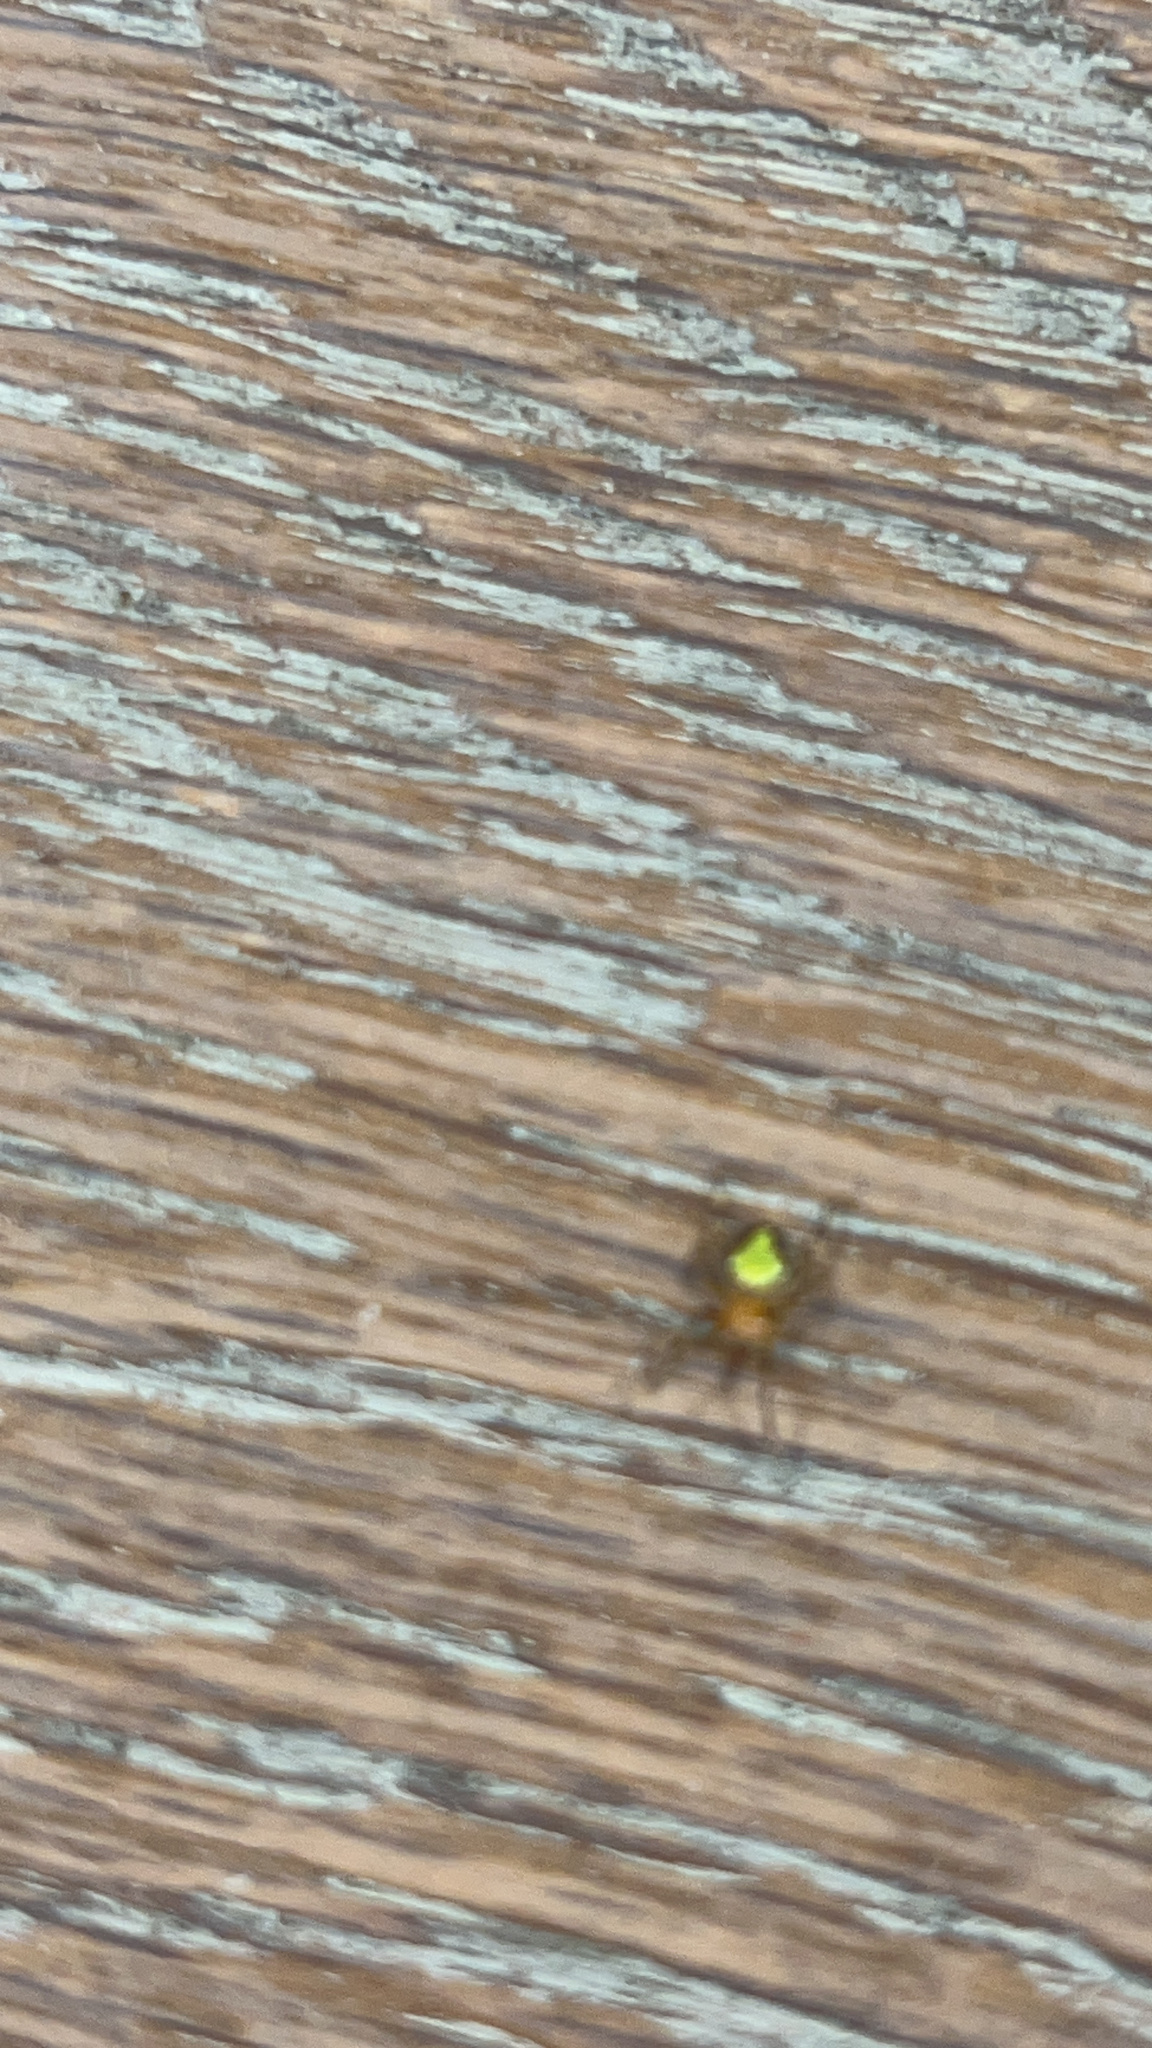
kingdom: Animalia
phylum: Arthropoda
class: Arachnida
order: Araneae
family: Araneidae
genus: Eriophora
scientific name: Eriophora ravilla
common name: Orb weavers
